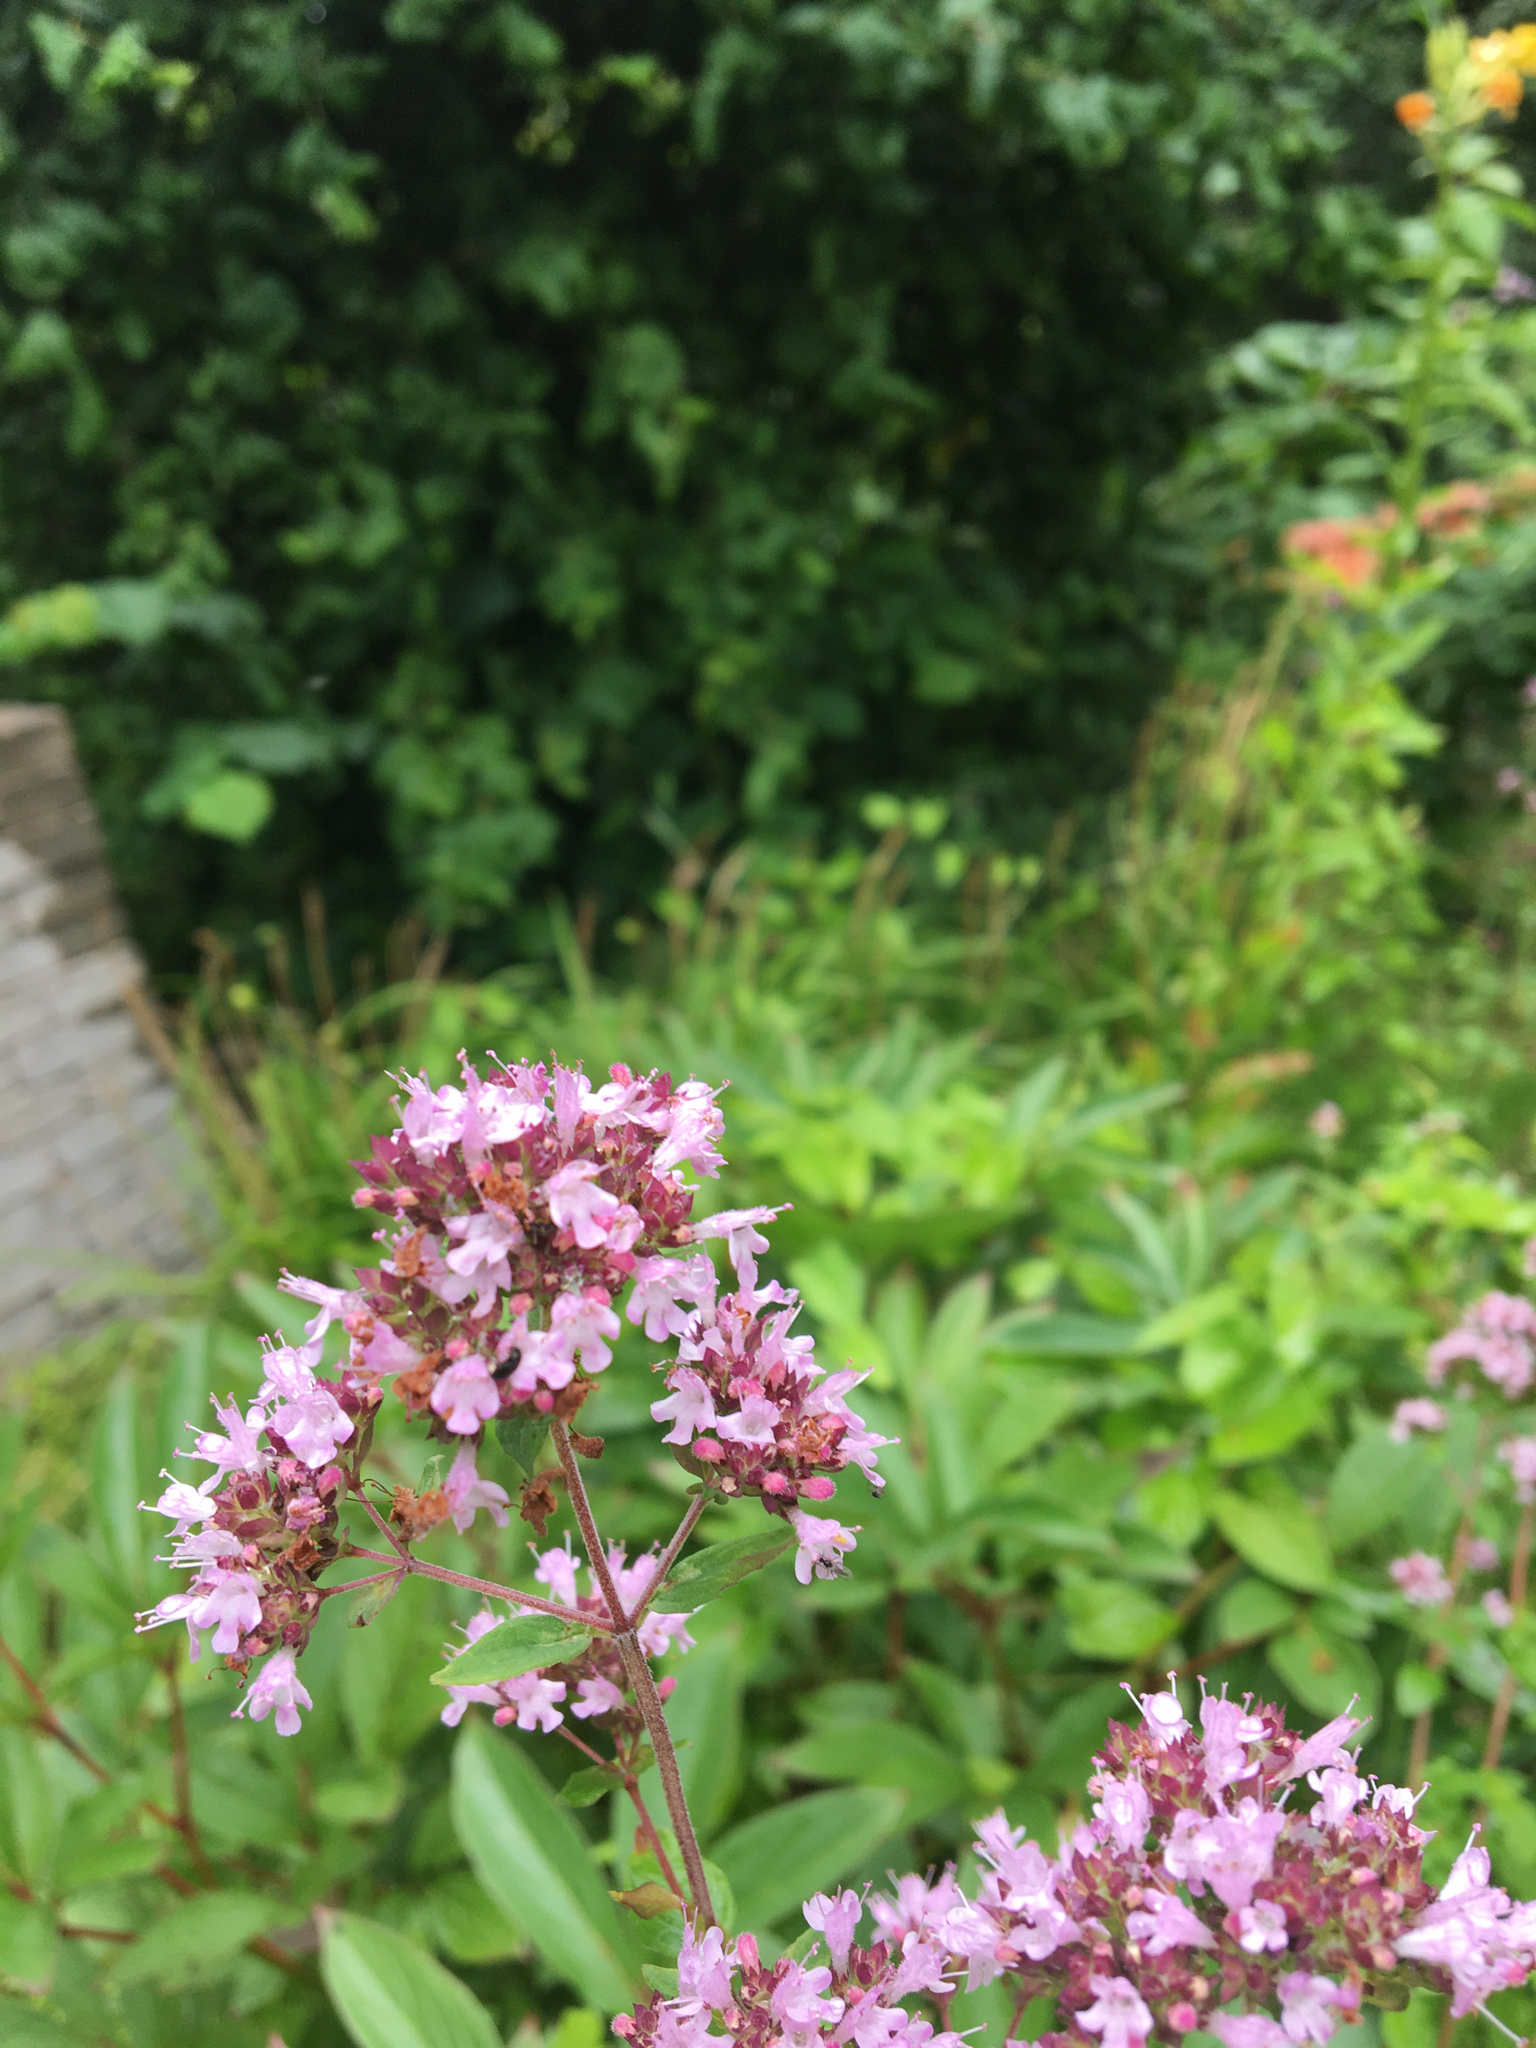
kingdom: Plantae
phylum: Tracheophyta
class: Magnoliopsida
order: Lamiales
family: Lamiaceae
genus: Origanum
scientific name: Origanum vulgare
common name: Wild marjoram
